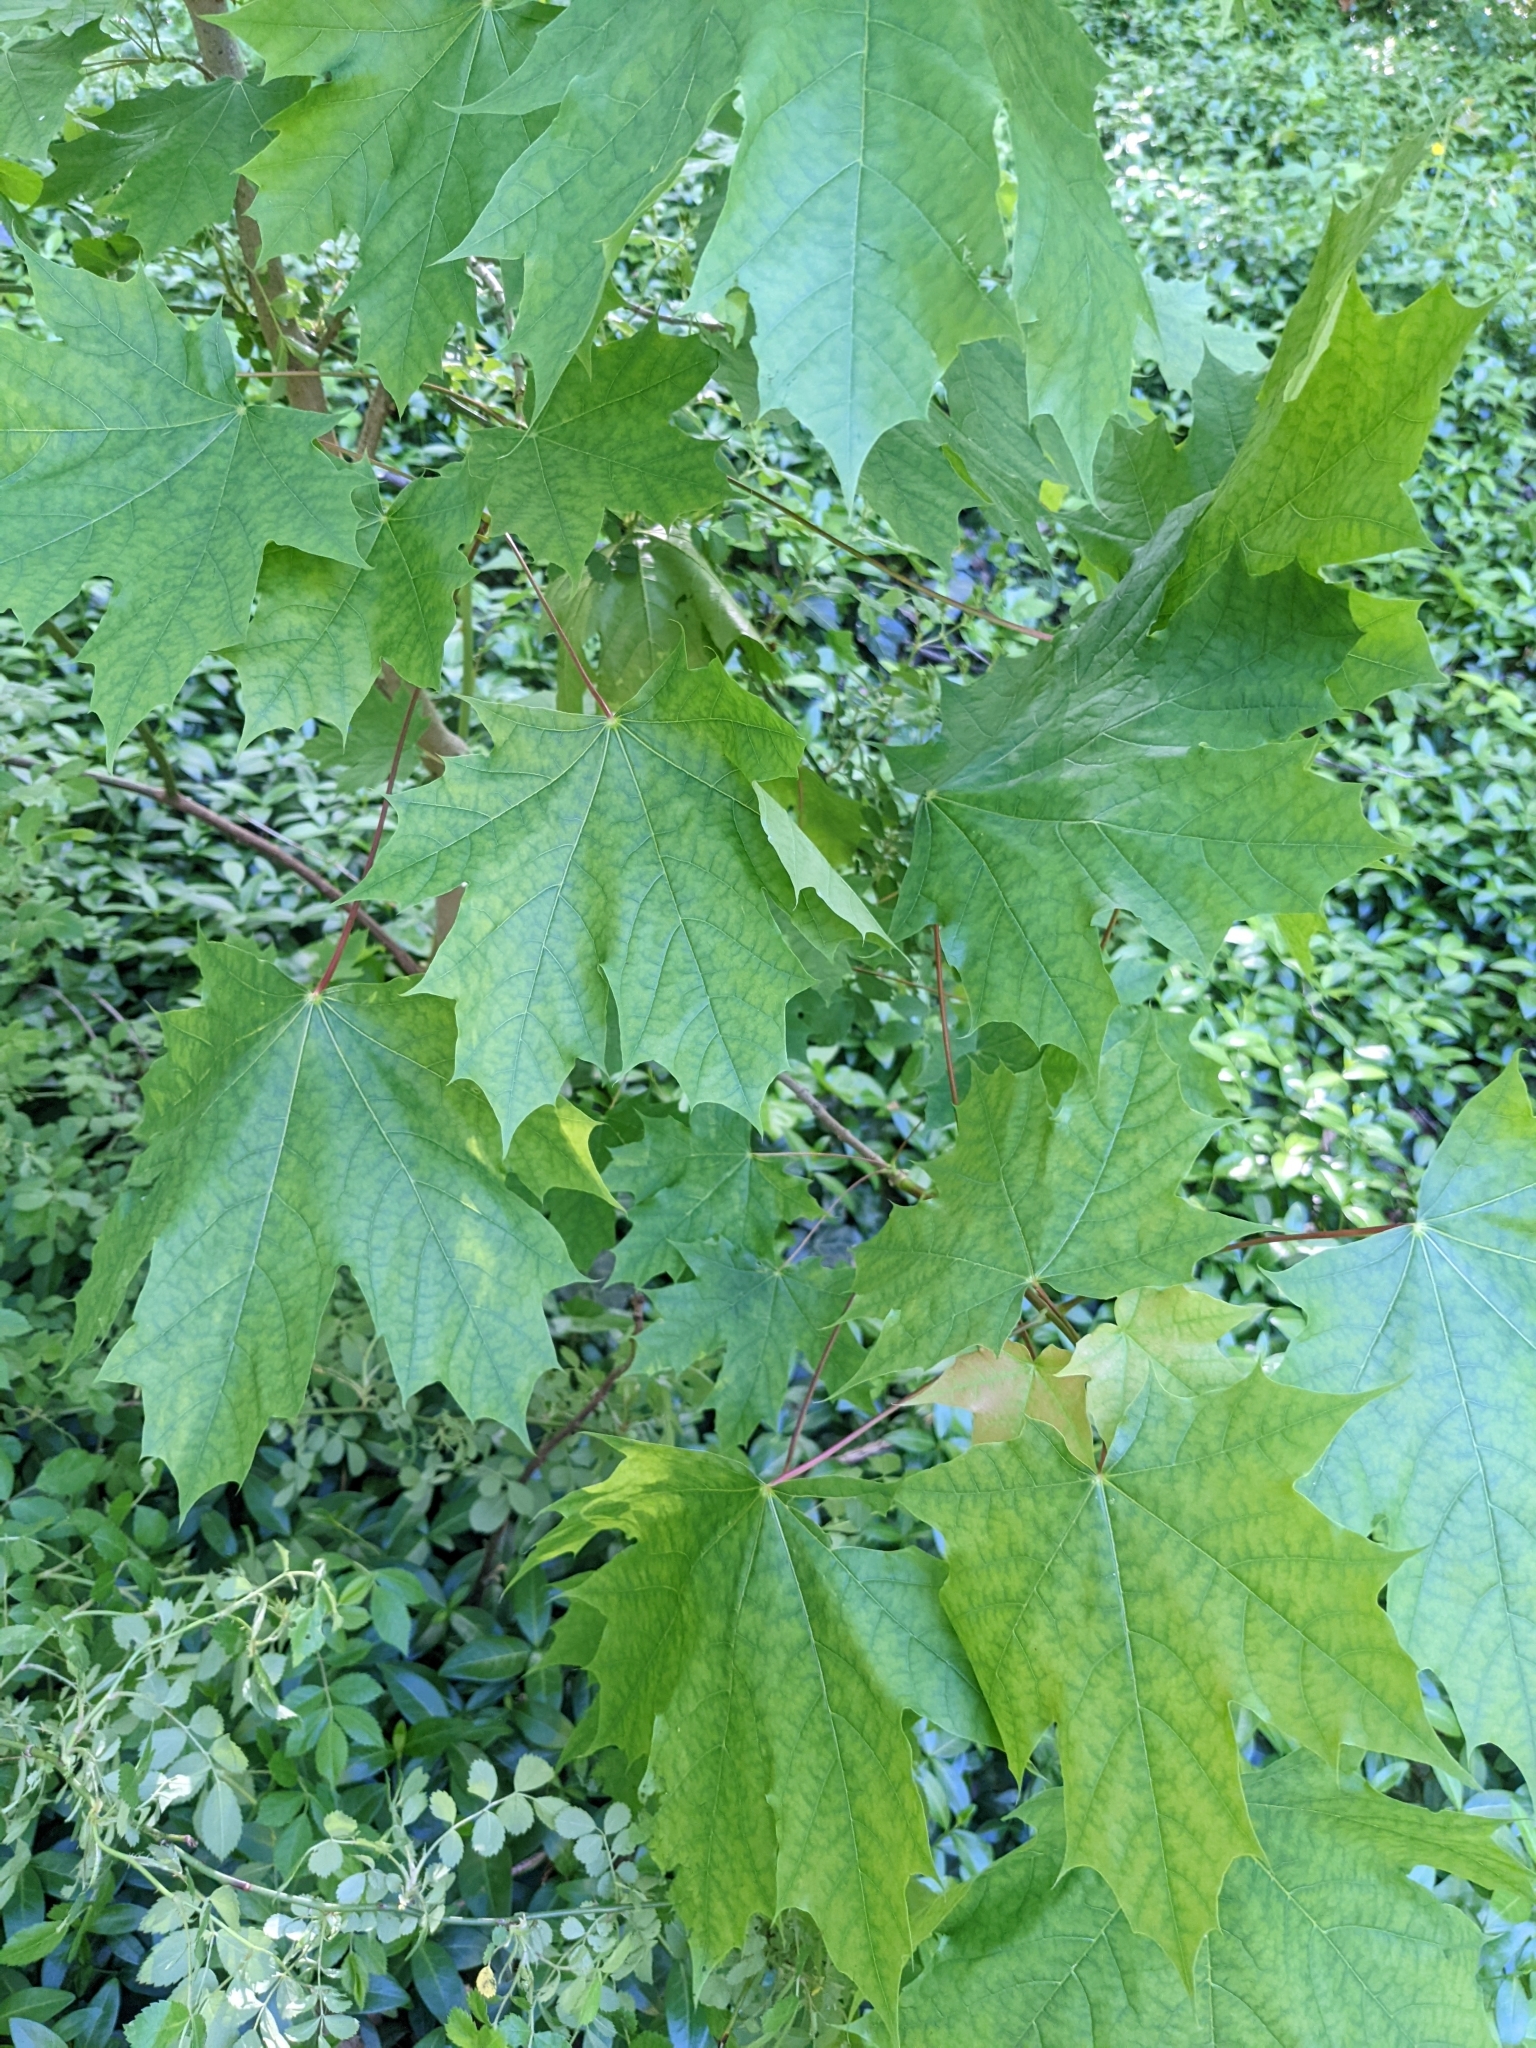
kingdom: Plantae
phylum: Tracheophyta
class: Magnoliopsida
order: Sapindales
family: Sapindaceae
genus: Acer
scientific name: Acer platanoides
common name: Norway maple
